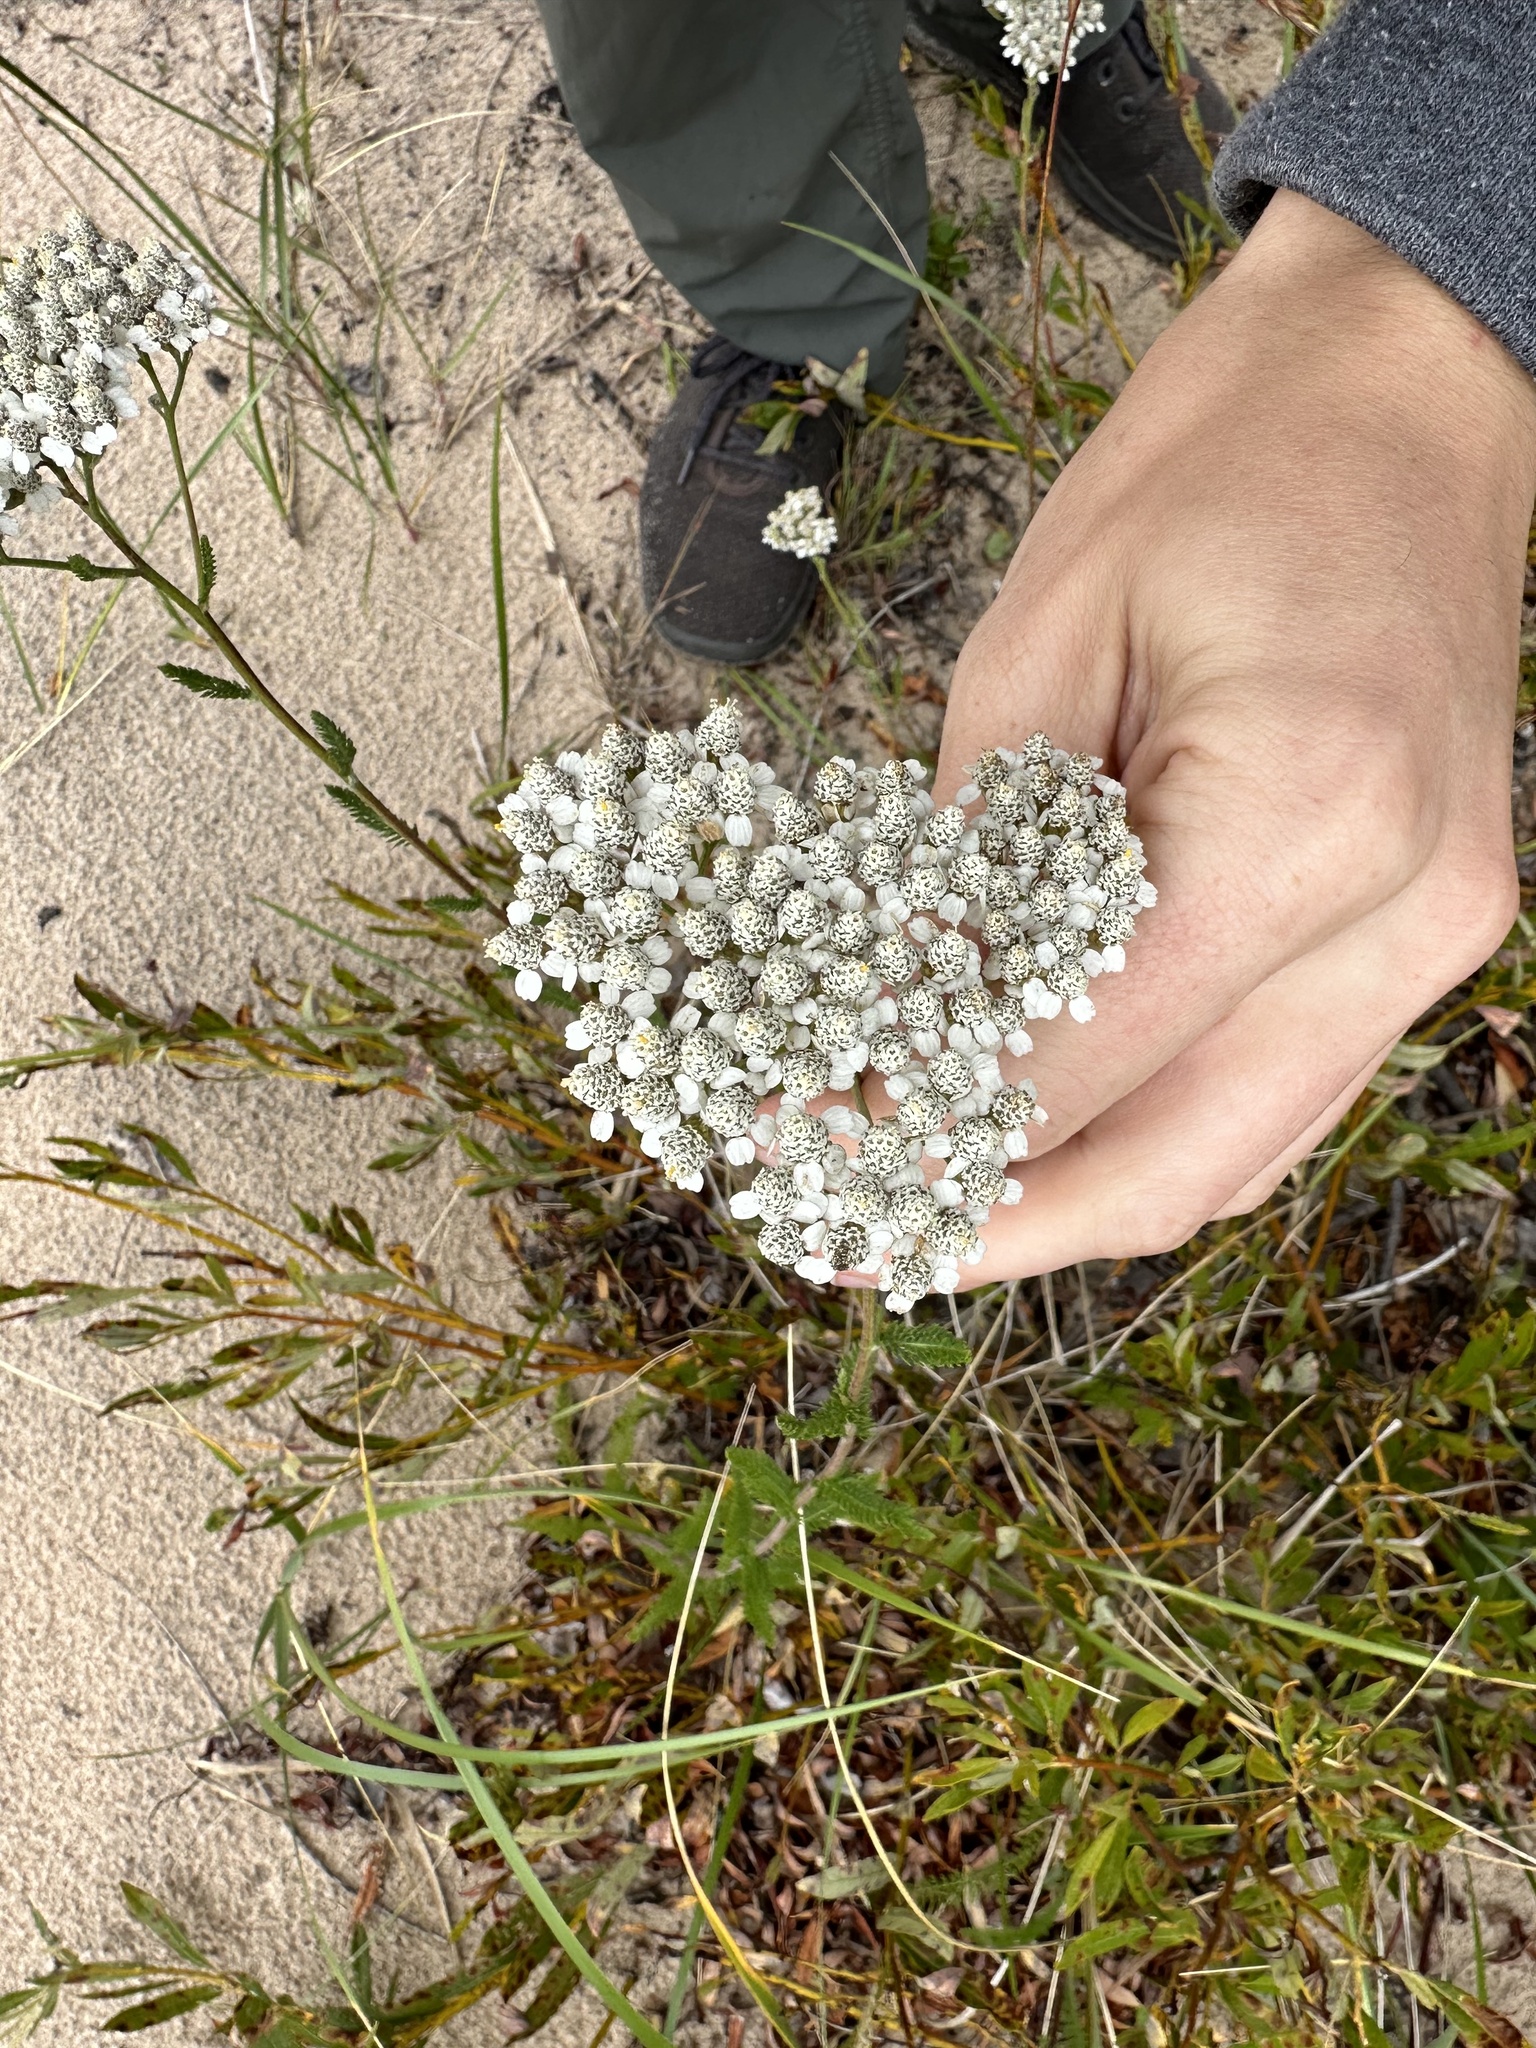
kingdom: Plantae
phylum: Tracheophyta
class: Magnoliopsida
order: Asterales
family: Asteraceae
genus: Achillea
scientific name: Achillea millefolium
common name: Yarrow
